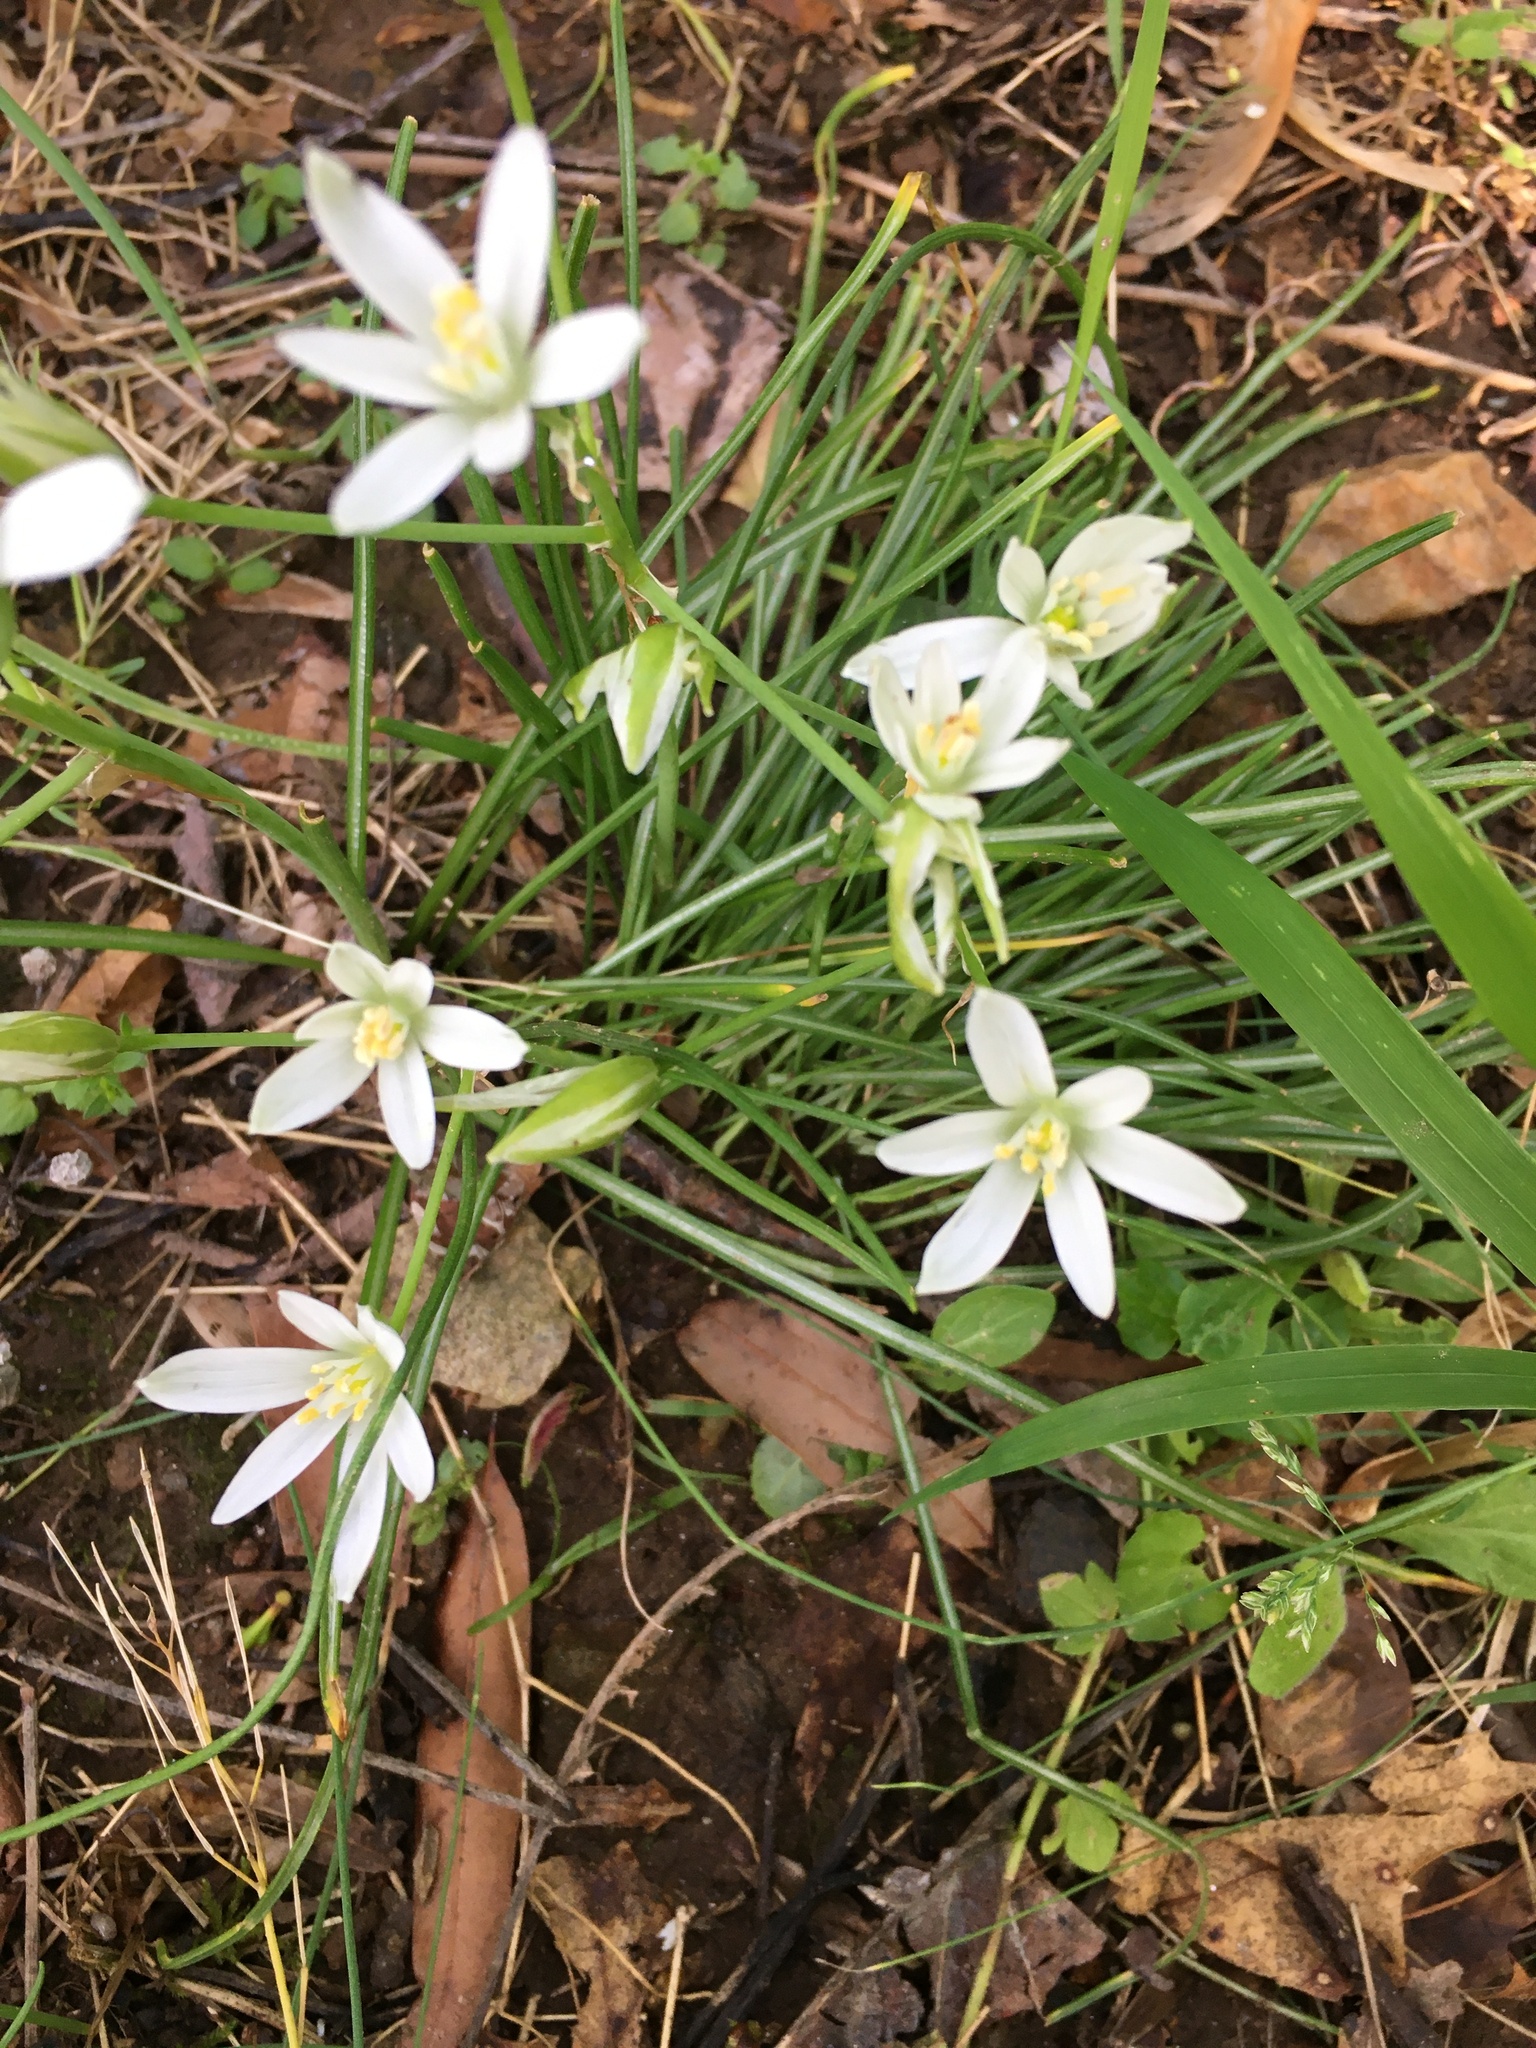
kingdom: Plantae
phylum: Tracheophyta
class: Liliopsida
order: Asparagales
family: Asparagaceae
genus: Ornithogalum
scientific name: Ornithogalum umbellatum
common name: Garden star-of-bethlehem
